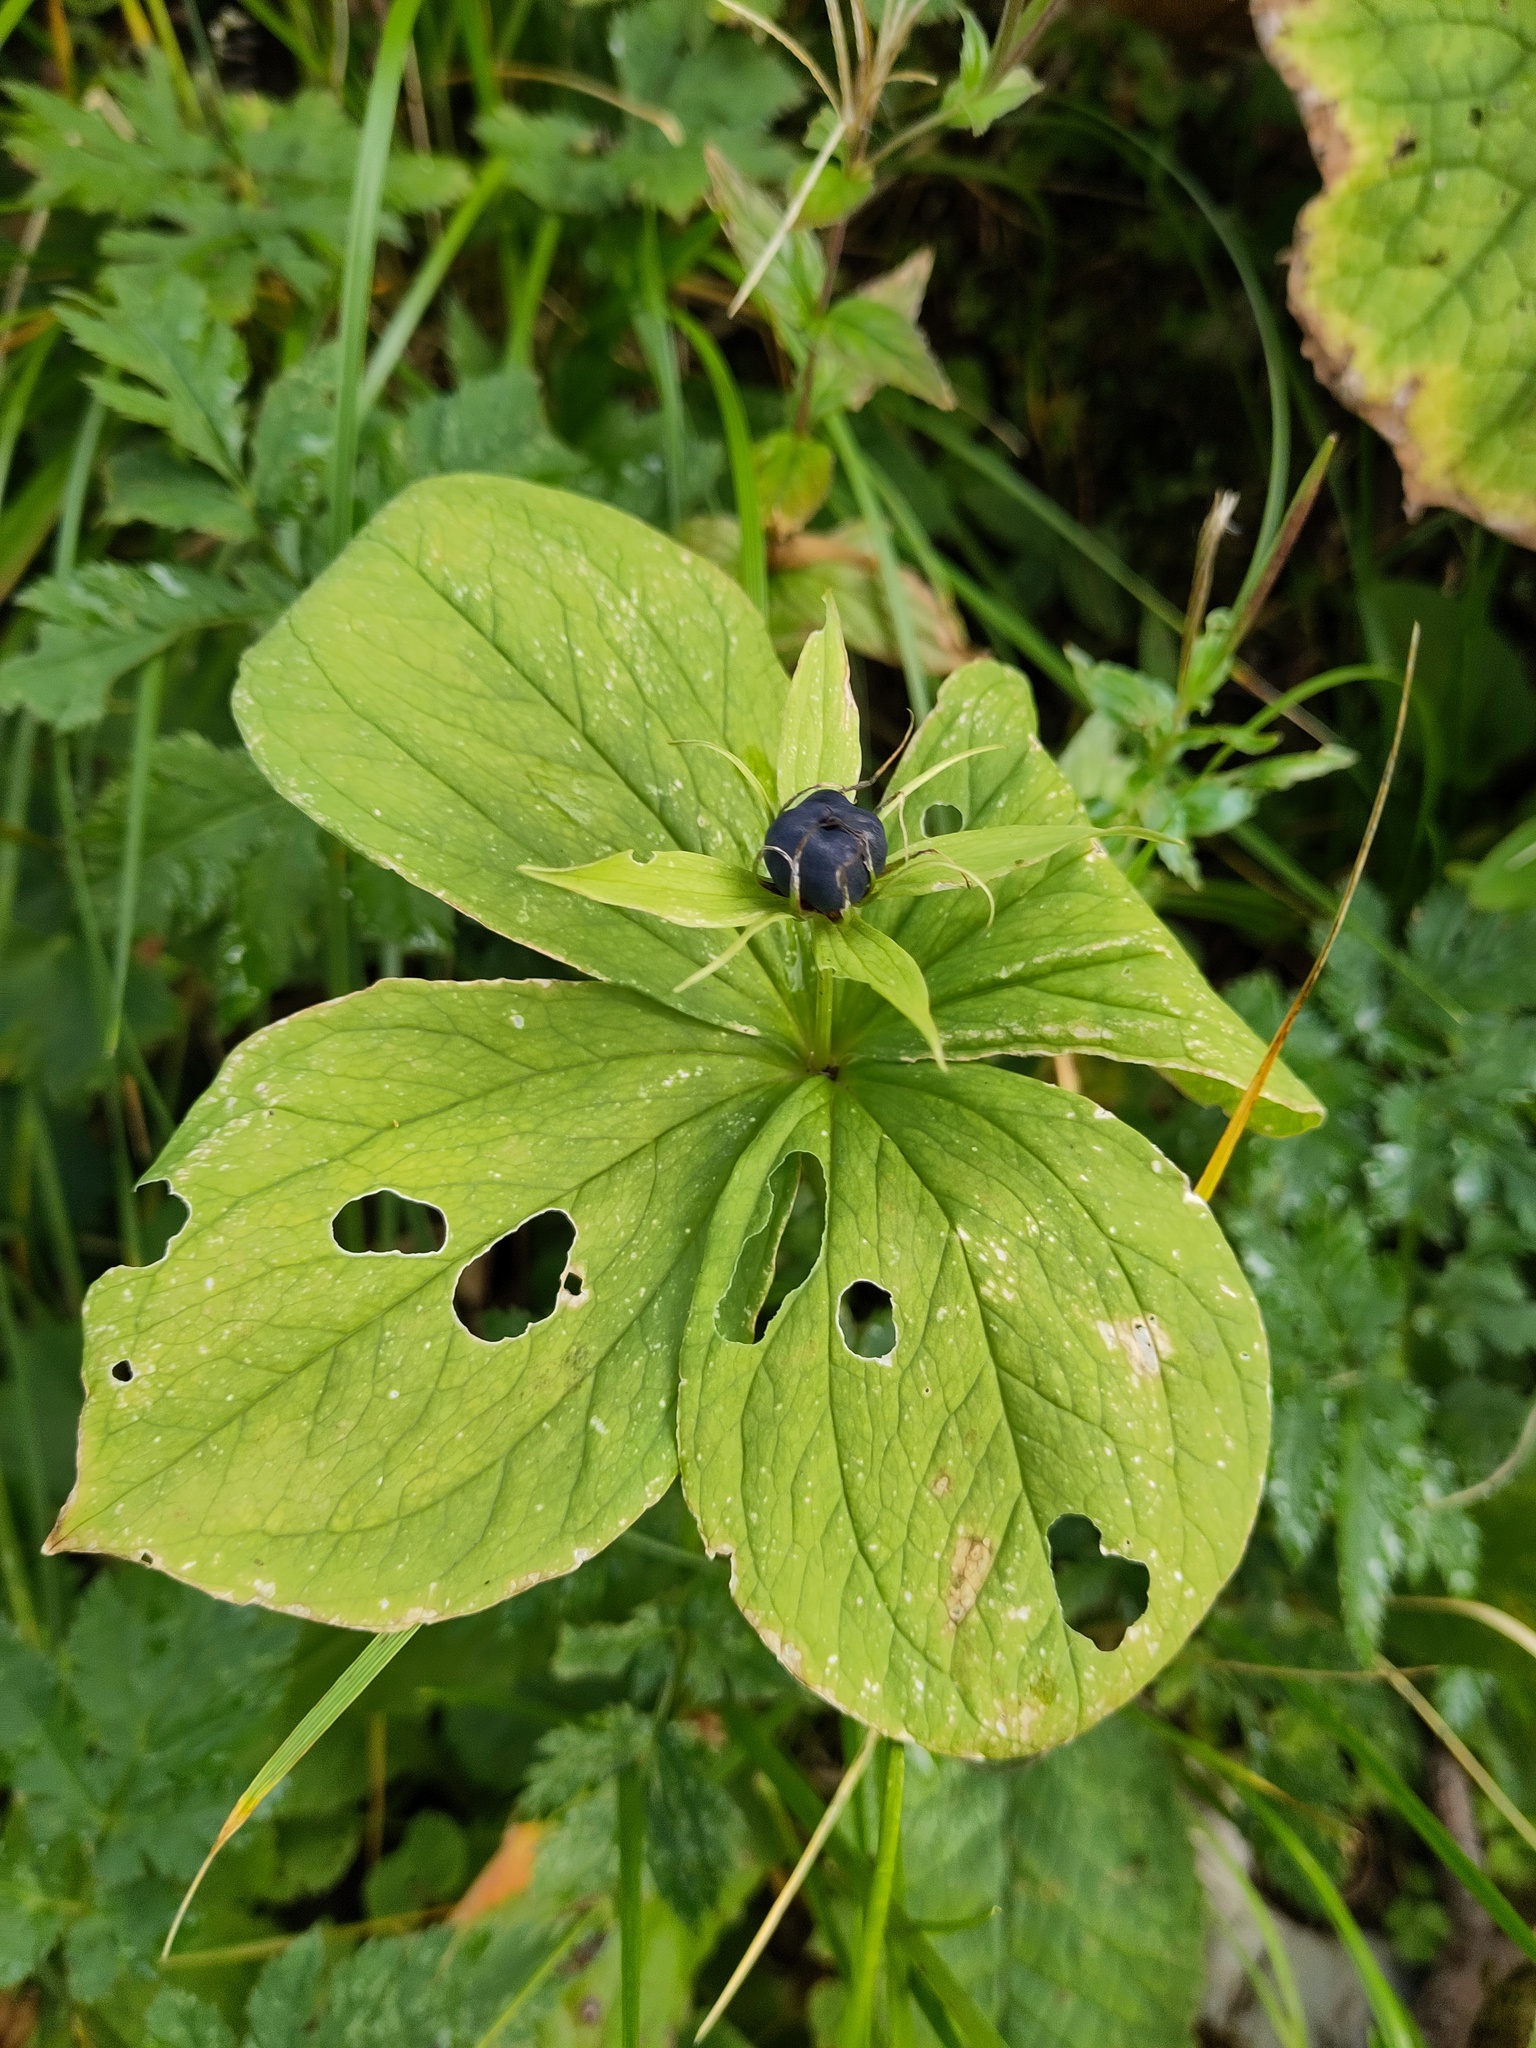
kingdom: Plantae
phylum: Tracheophyta
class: Liliopsida
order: Liliales
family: Melanthiaceae
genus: Paris
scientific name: Paris quadrifolia
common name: Herb-paris
